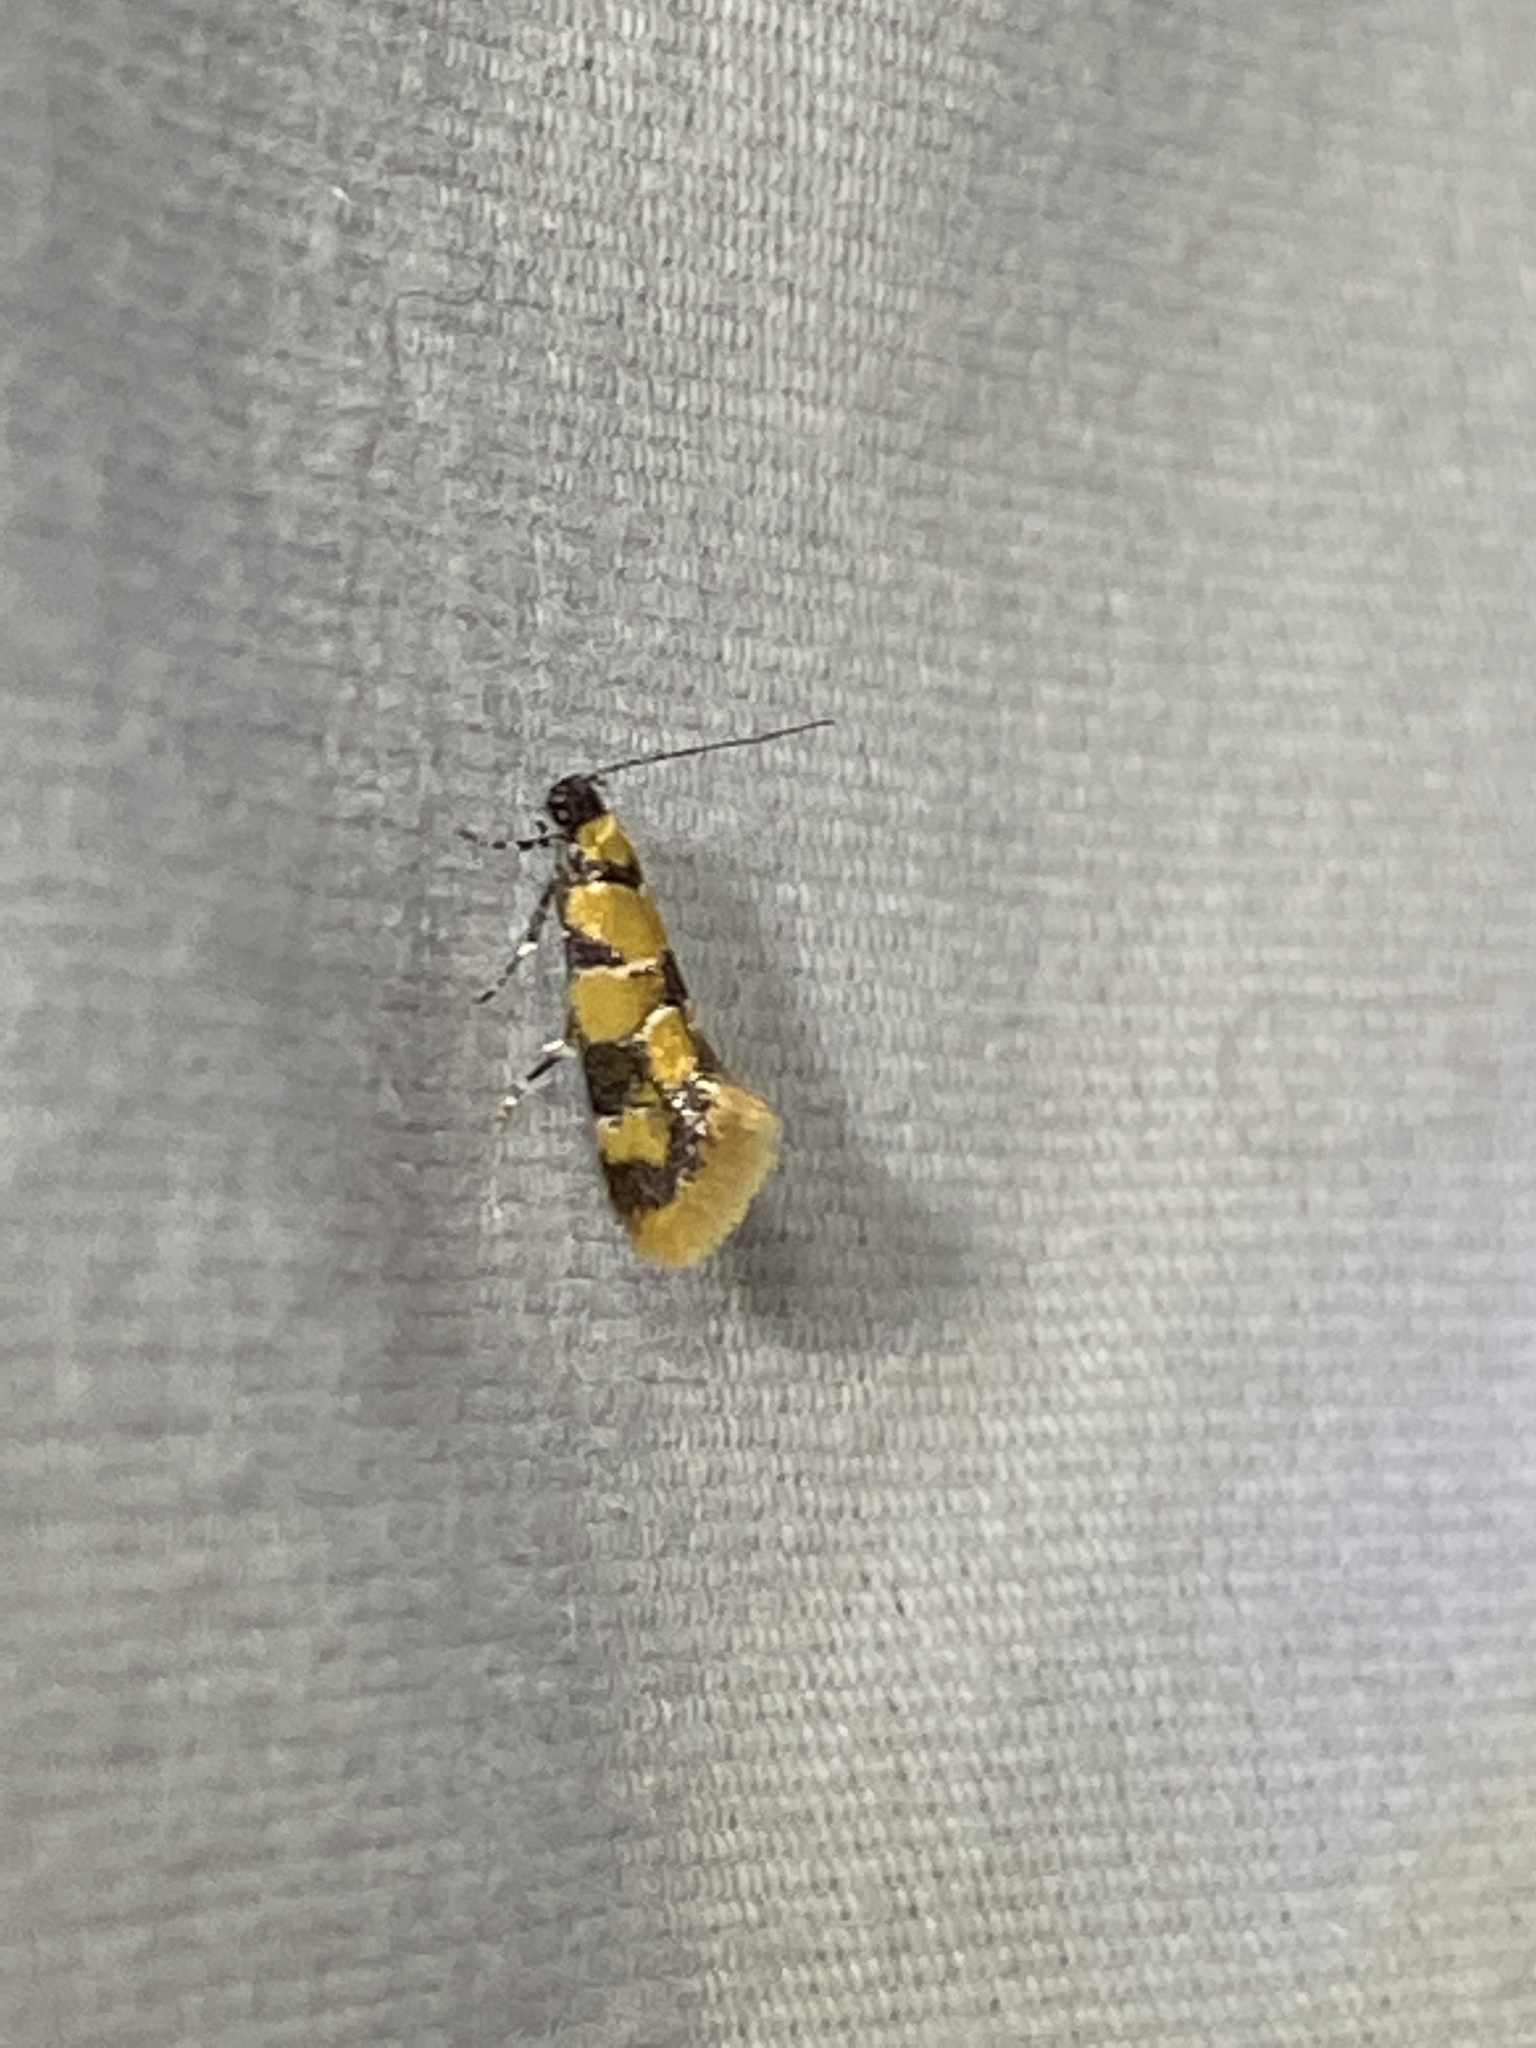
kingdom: Animalia
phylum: Arthropoda
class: Insecta
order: Lepidoptera
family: Oecophoridae
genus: Decantha
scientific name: Decantha borkhausenii
